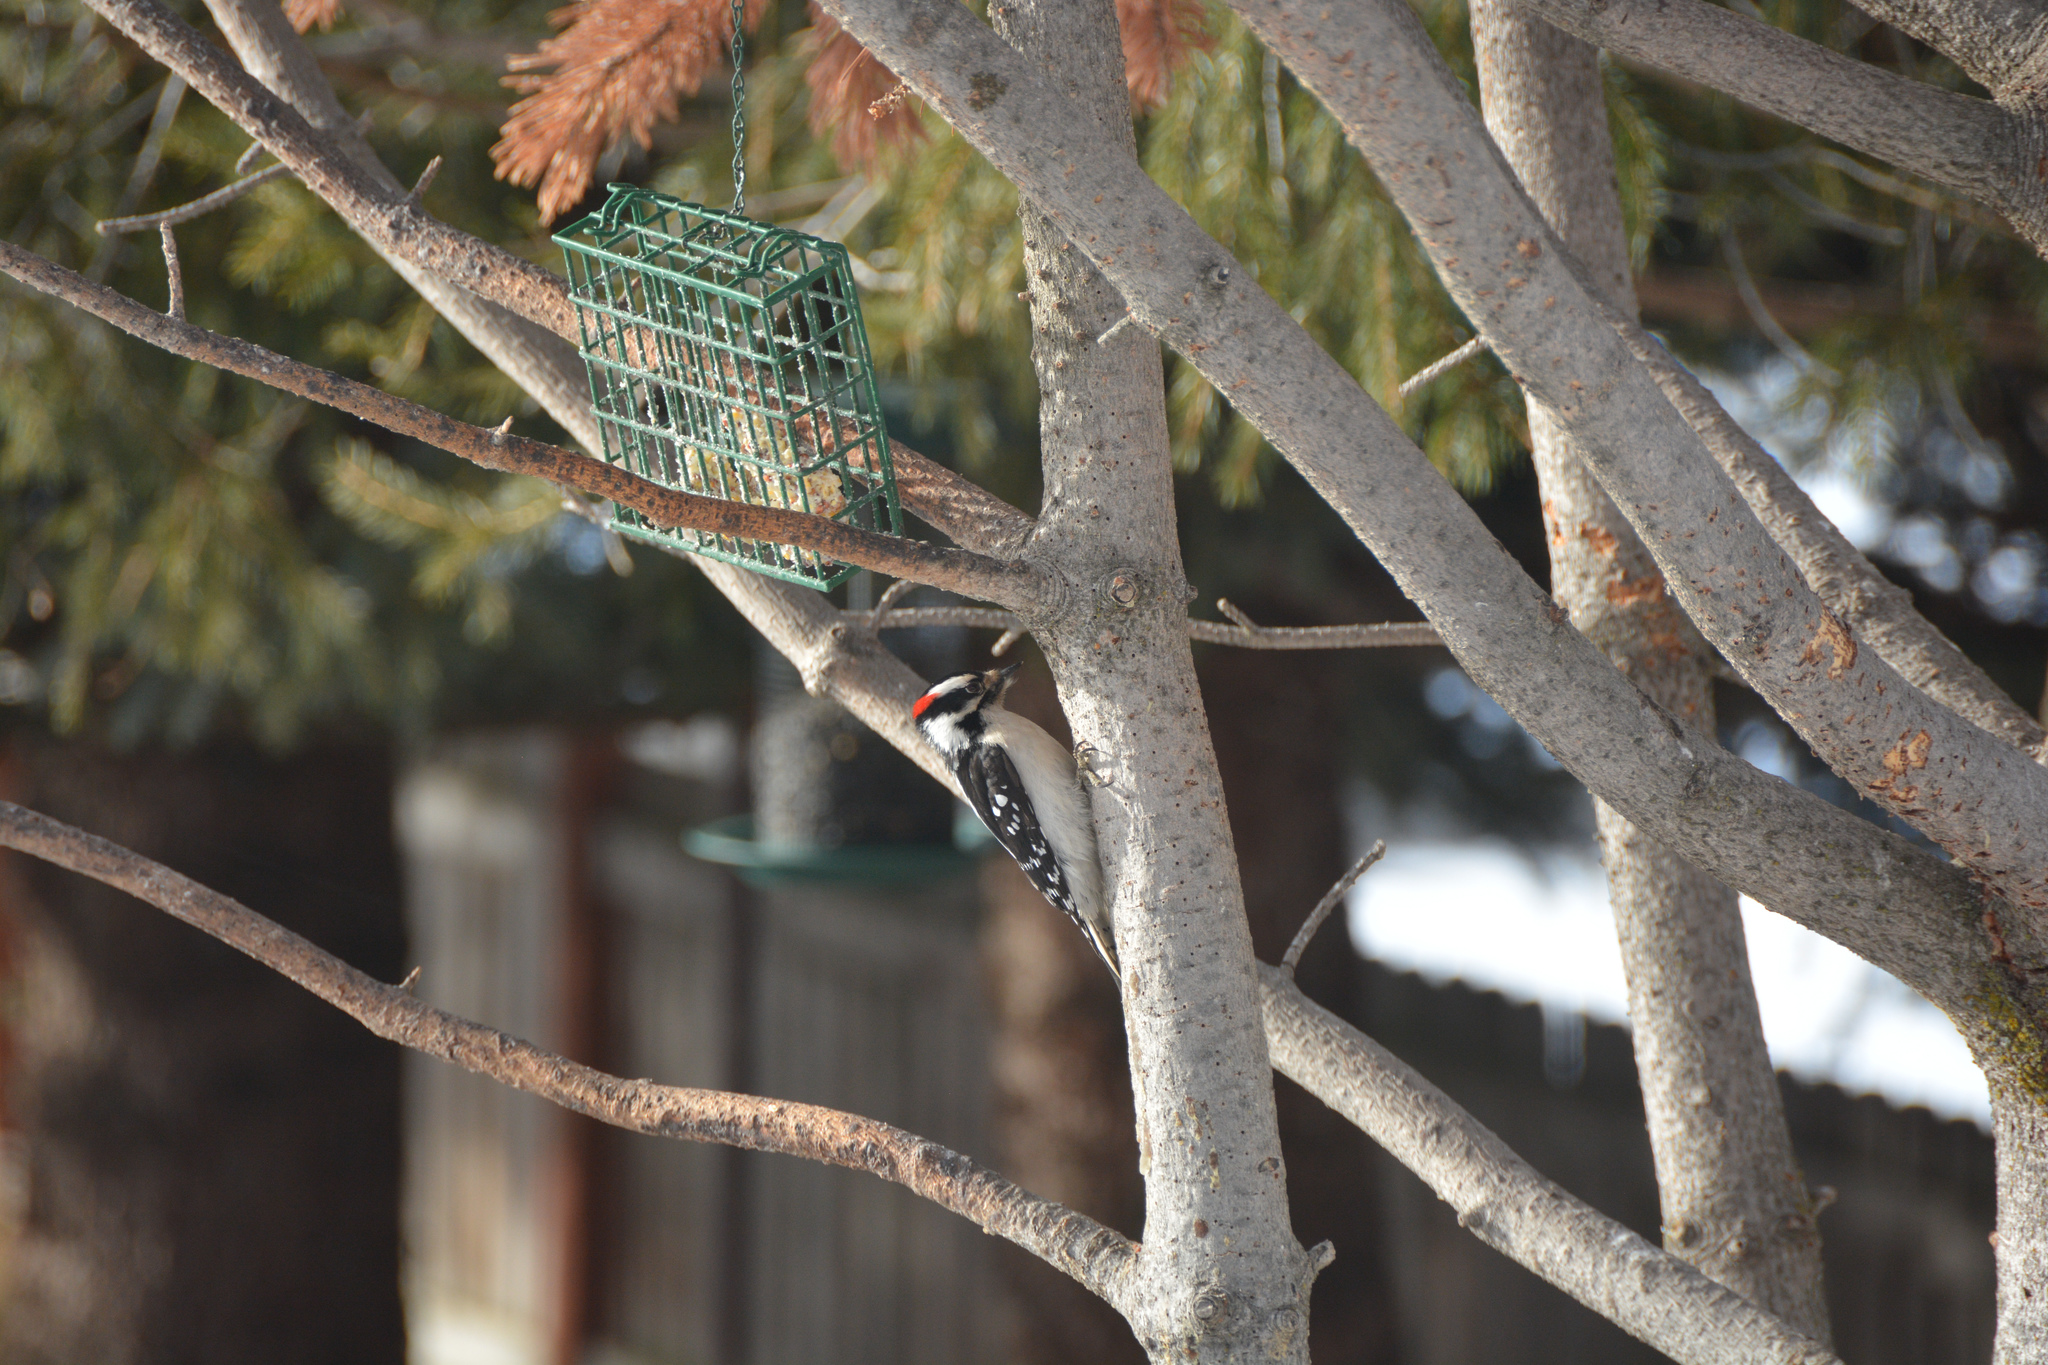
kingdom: Animalia
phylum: Chordata
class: Aves
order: Piciformes
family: Picidae
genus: Dryobates
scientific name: Dryobates pubescens
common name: Downy woodpecker
